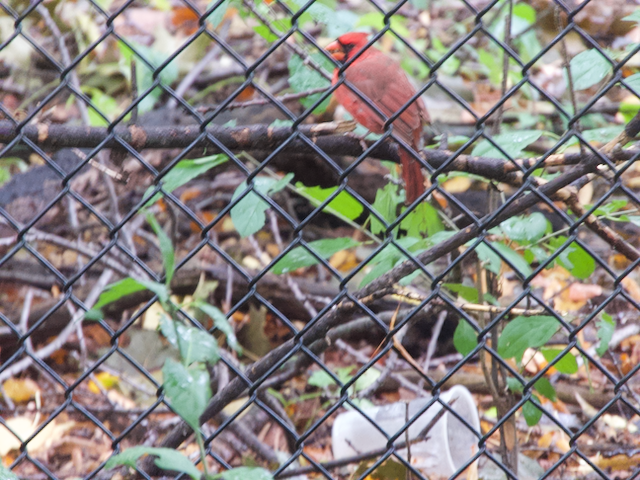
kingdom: Animalia
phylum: Chordata
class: Aves
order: Passeriformes
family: Cardinalidae
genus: Cardinalis
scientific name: Cardinalis cardinalis
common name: Northern cardinal
